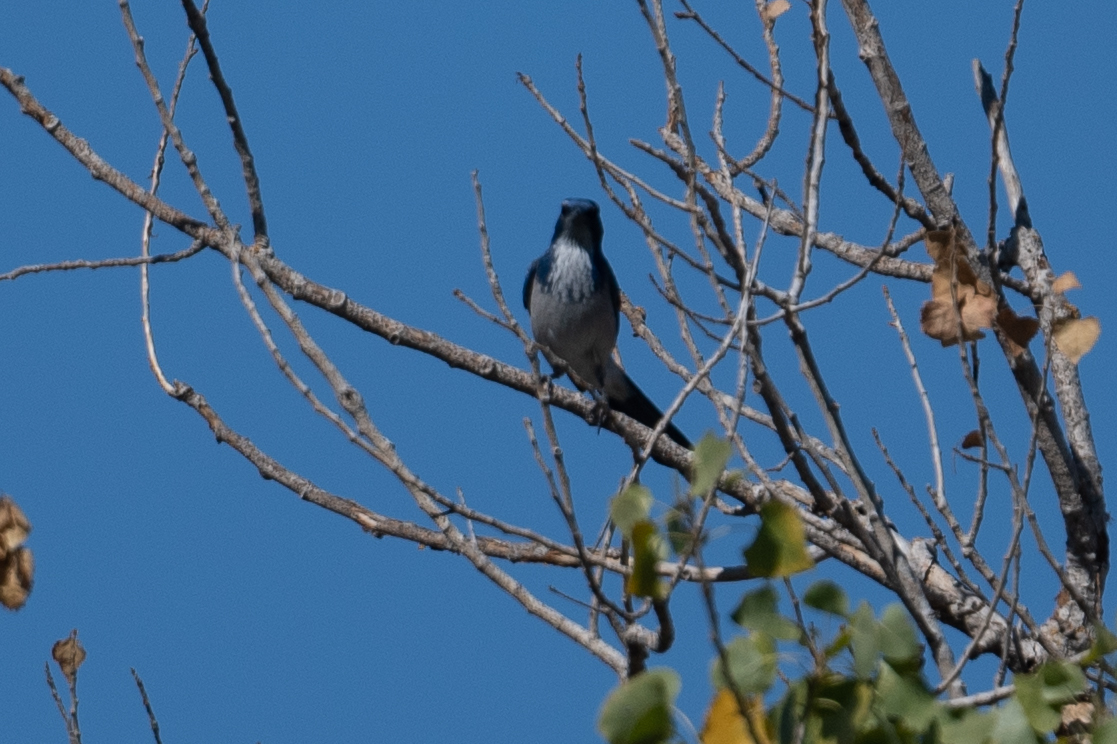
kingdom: Animalia
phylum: Chordata
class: Aves
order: Passeriformes
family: Corvidae
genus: Aphelocoma
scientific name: Aphelocoma californica
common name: California scrub-jay
